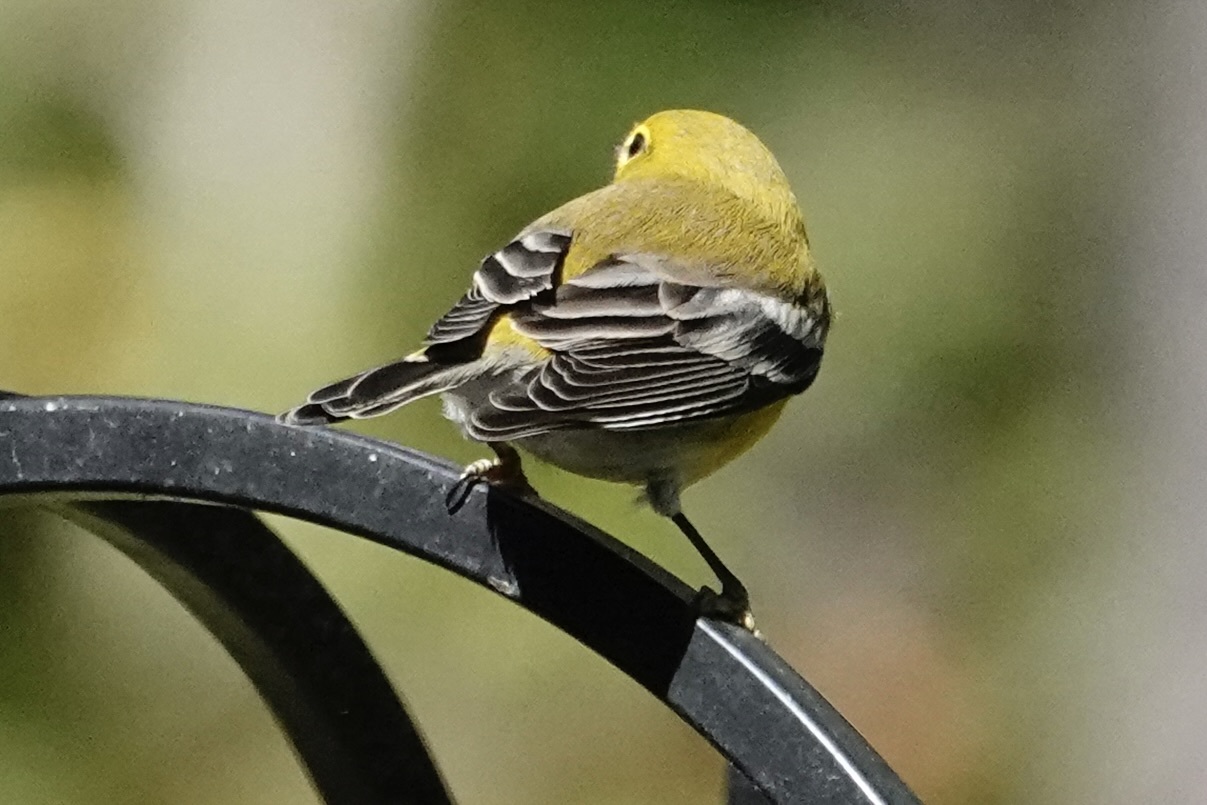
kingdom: Animalia
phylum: Chordata
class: Aves
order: Passeriformes
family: Parulidae
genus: Setophaga
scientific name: Setophaga pinus
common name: Pine warbler
